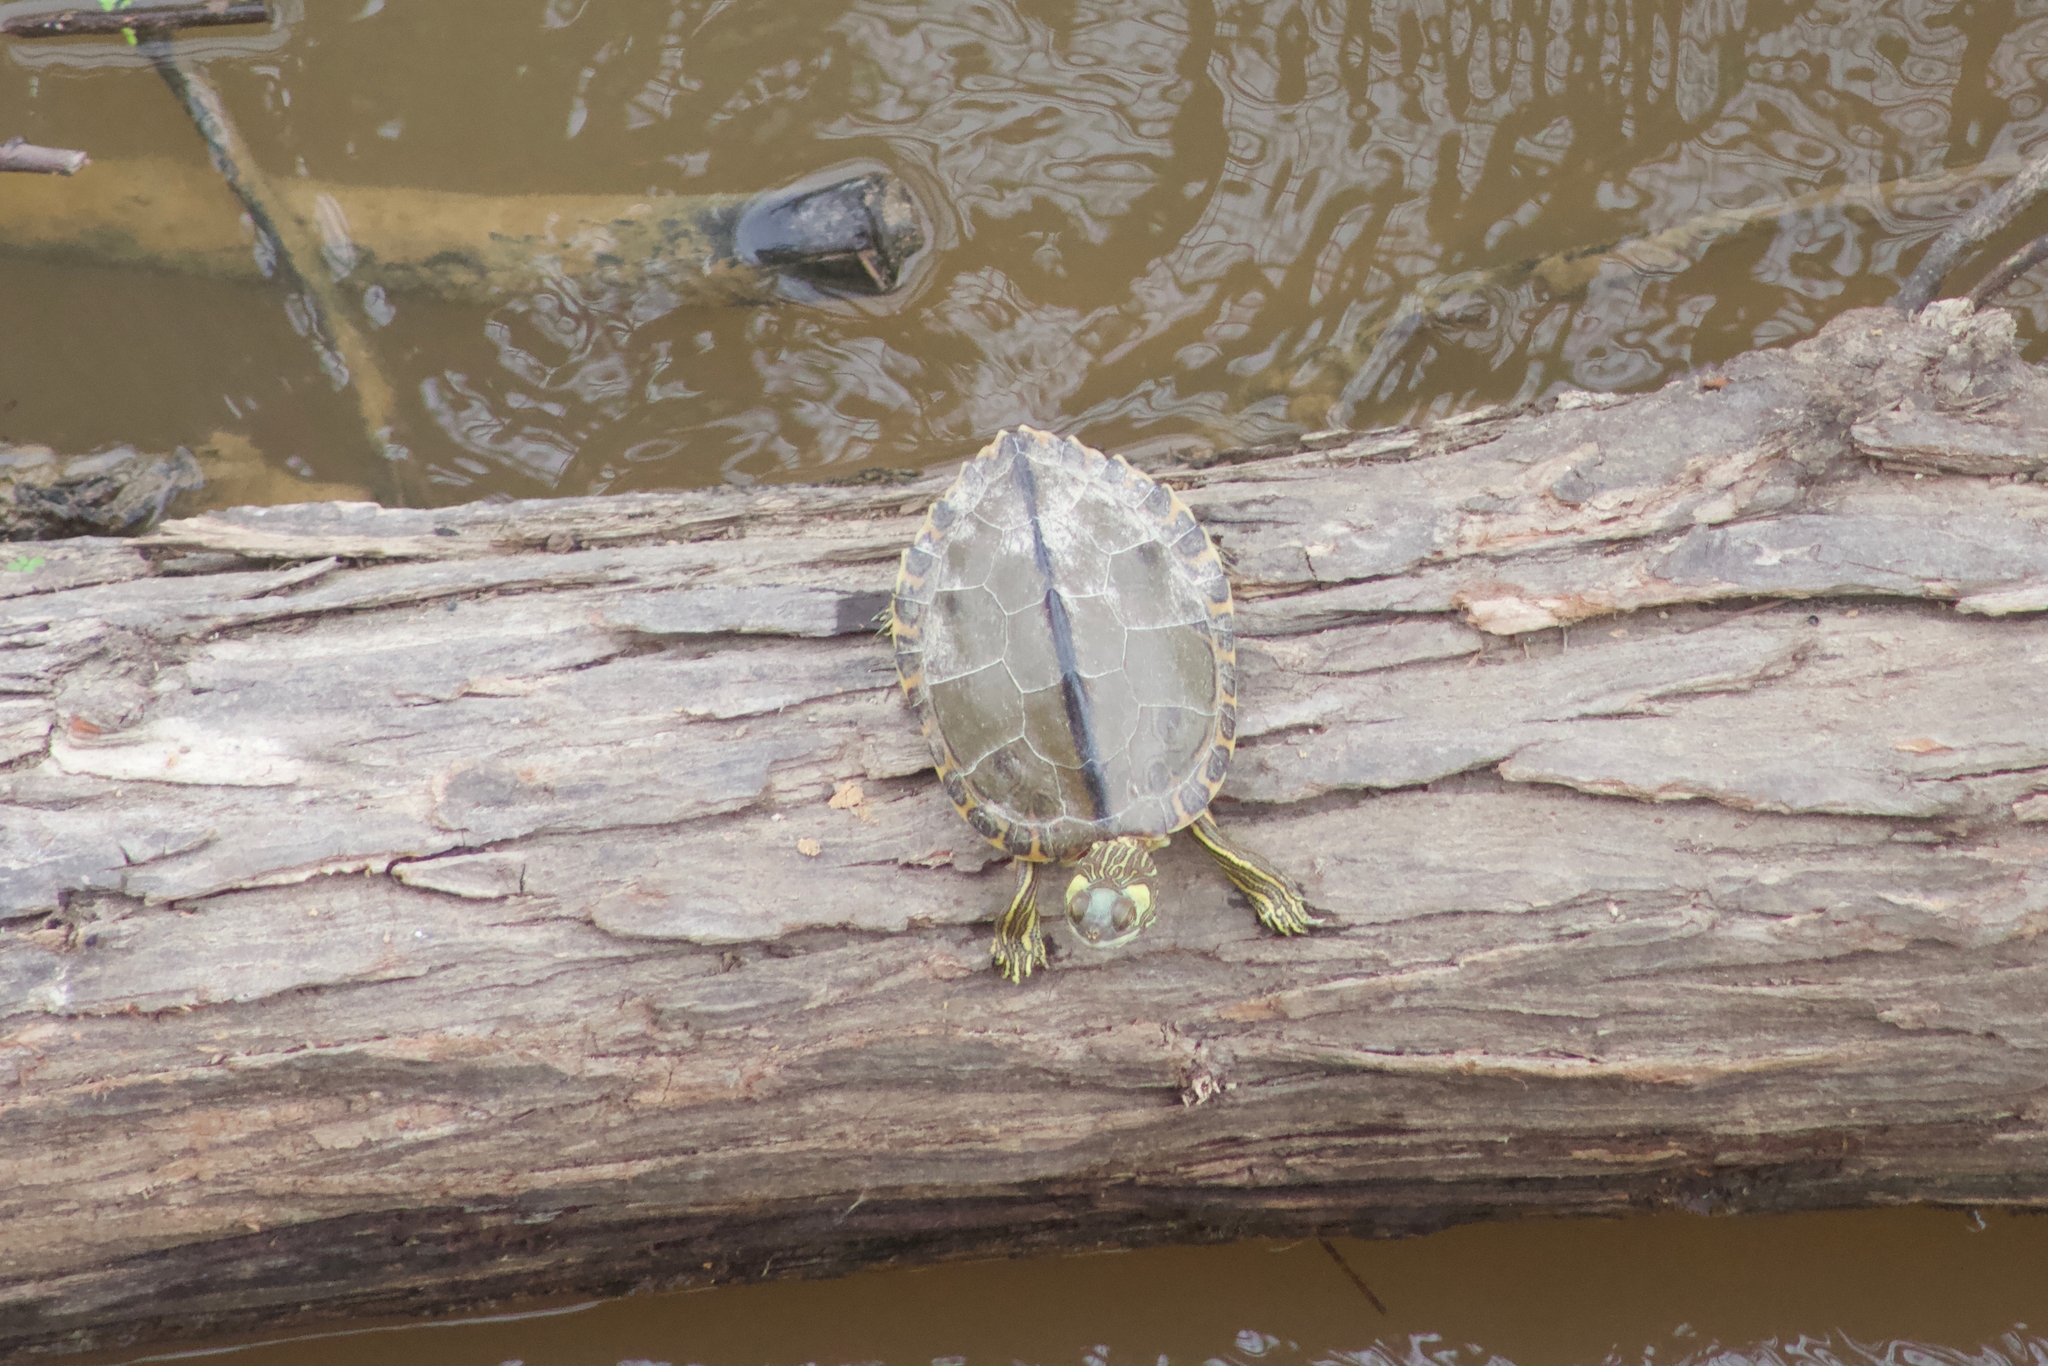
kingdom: Animalia
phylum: Chordata
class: Testudines
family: Emydidae
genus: Graptemys
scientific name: Graptemys gibbonsi
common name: Pascagoula map turtle
